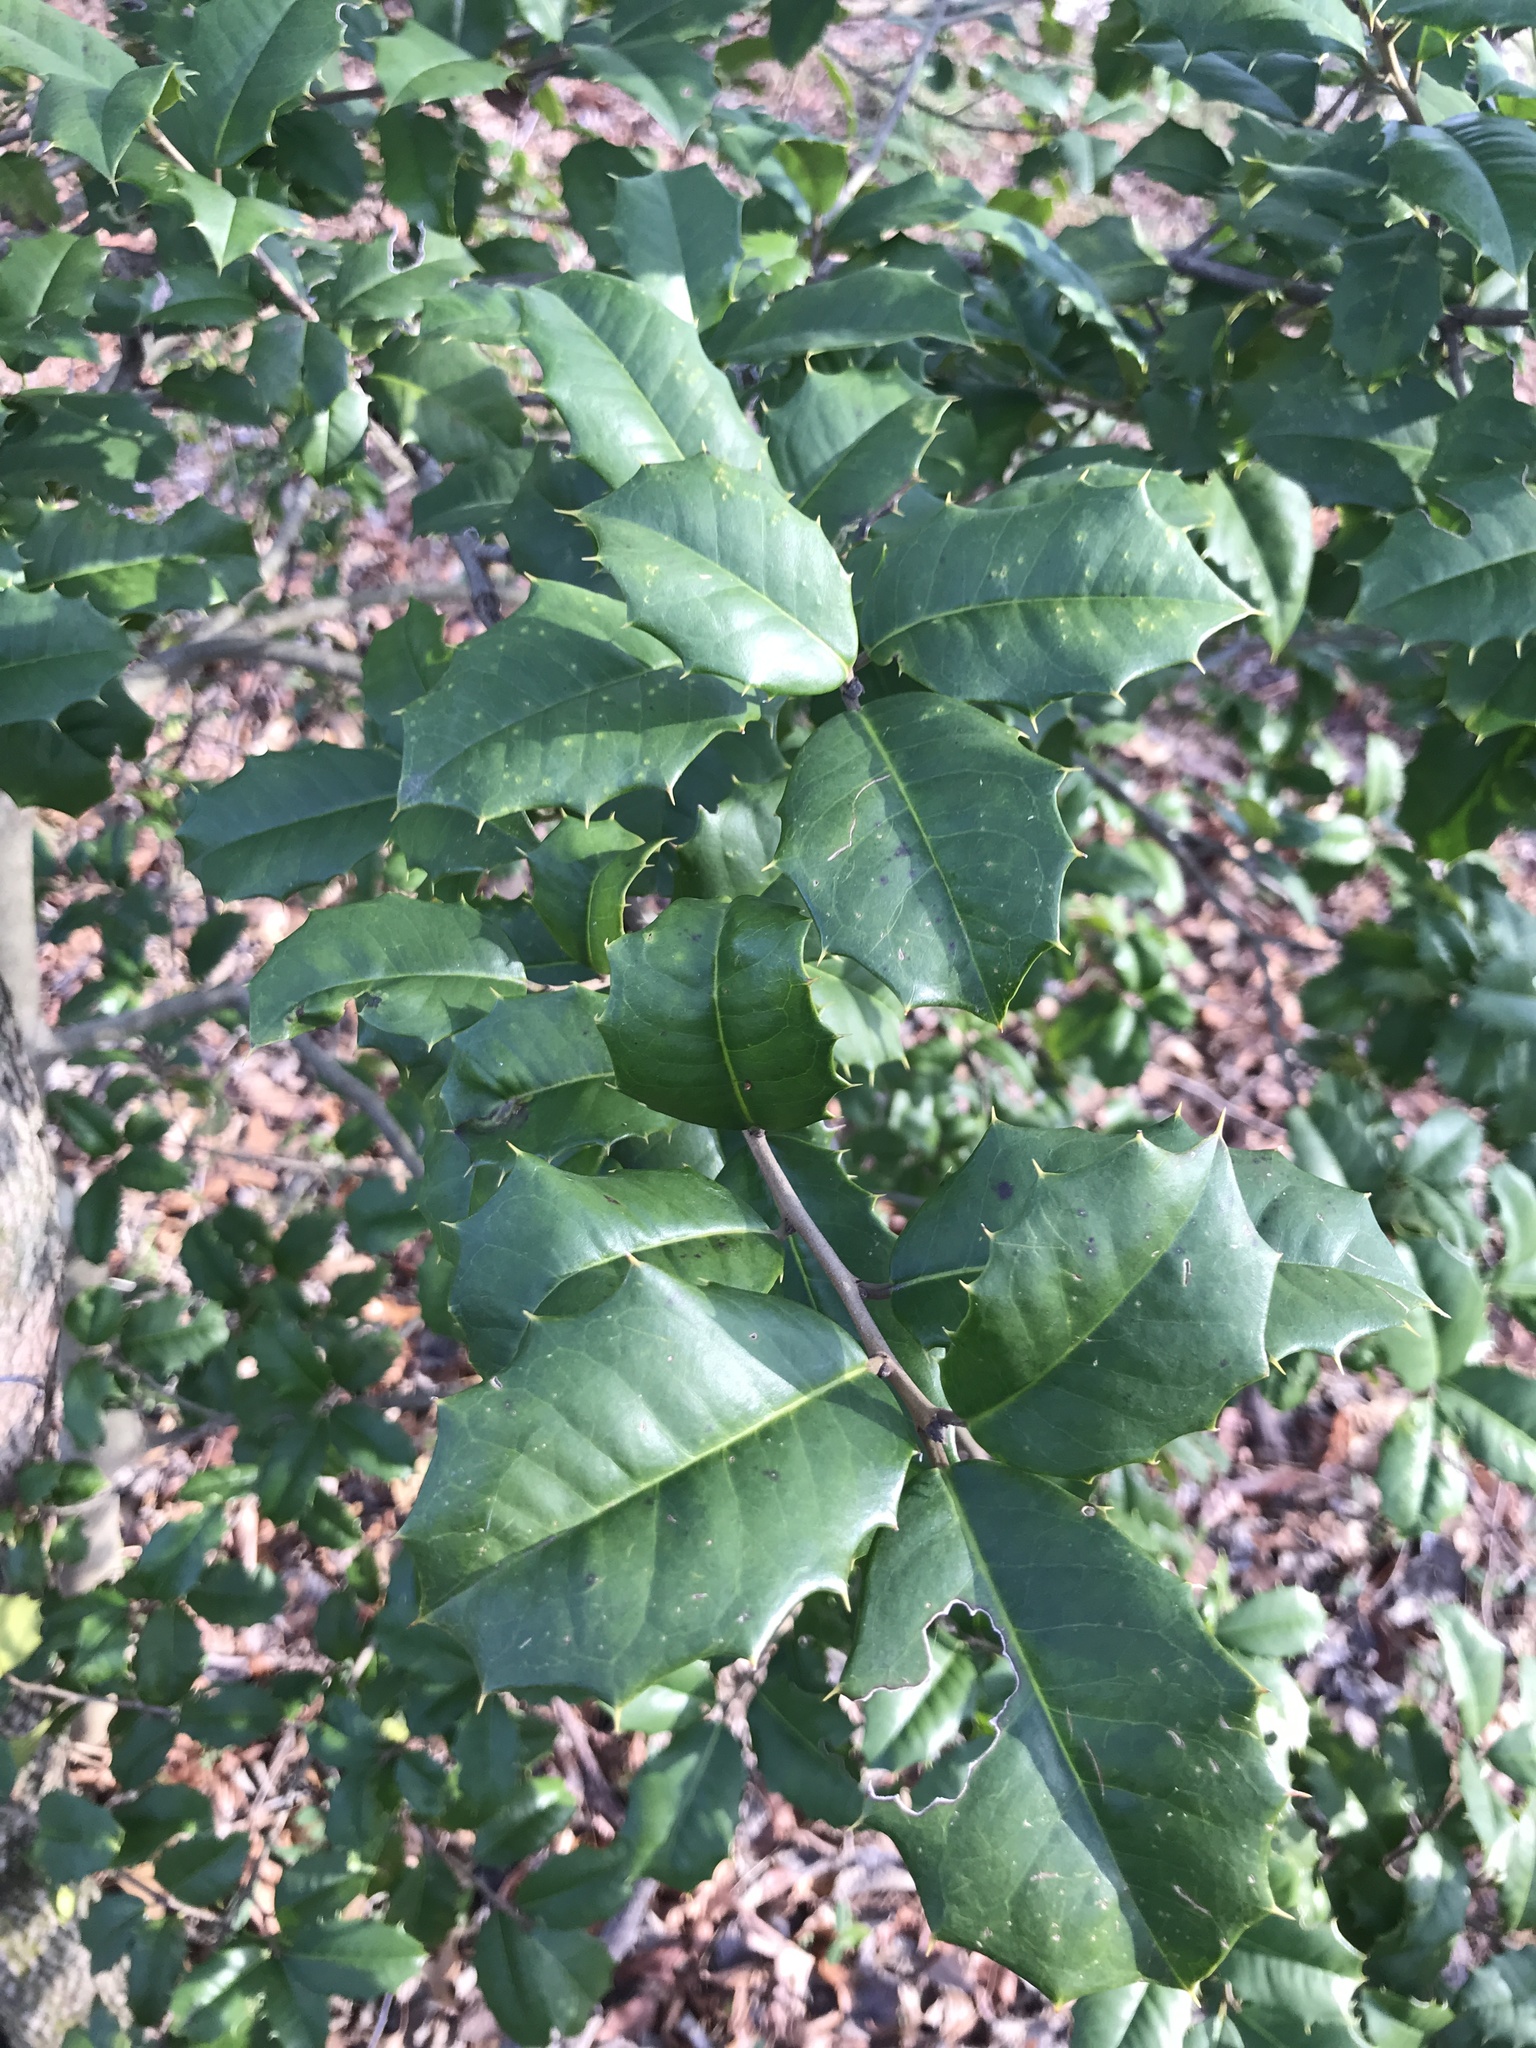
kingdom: Plantae
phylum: Tracheophyta
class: Magnoliopsida
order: Aquifoliales
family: Aquifoliaceae
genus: Ilex
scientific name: Ilex opaca
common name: American holly
